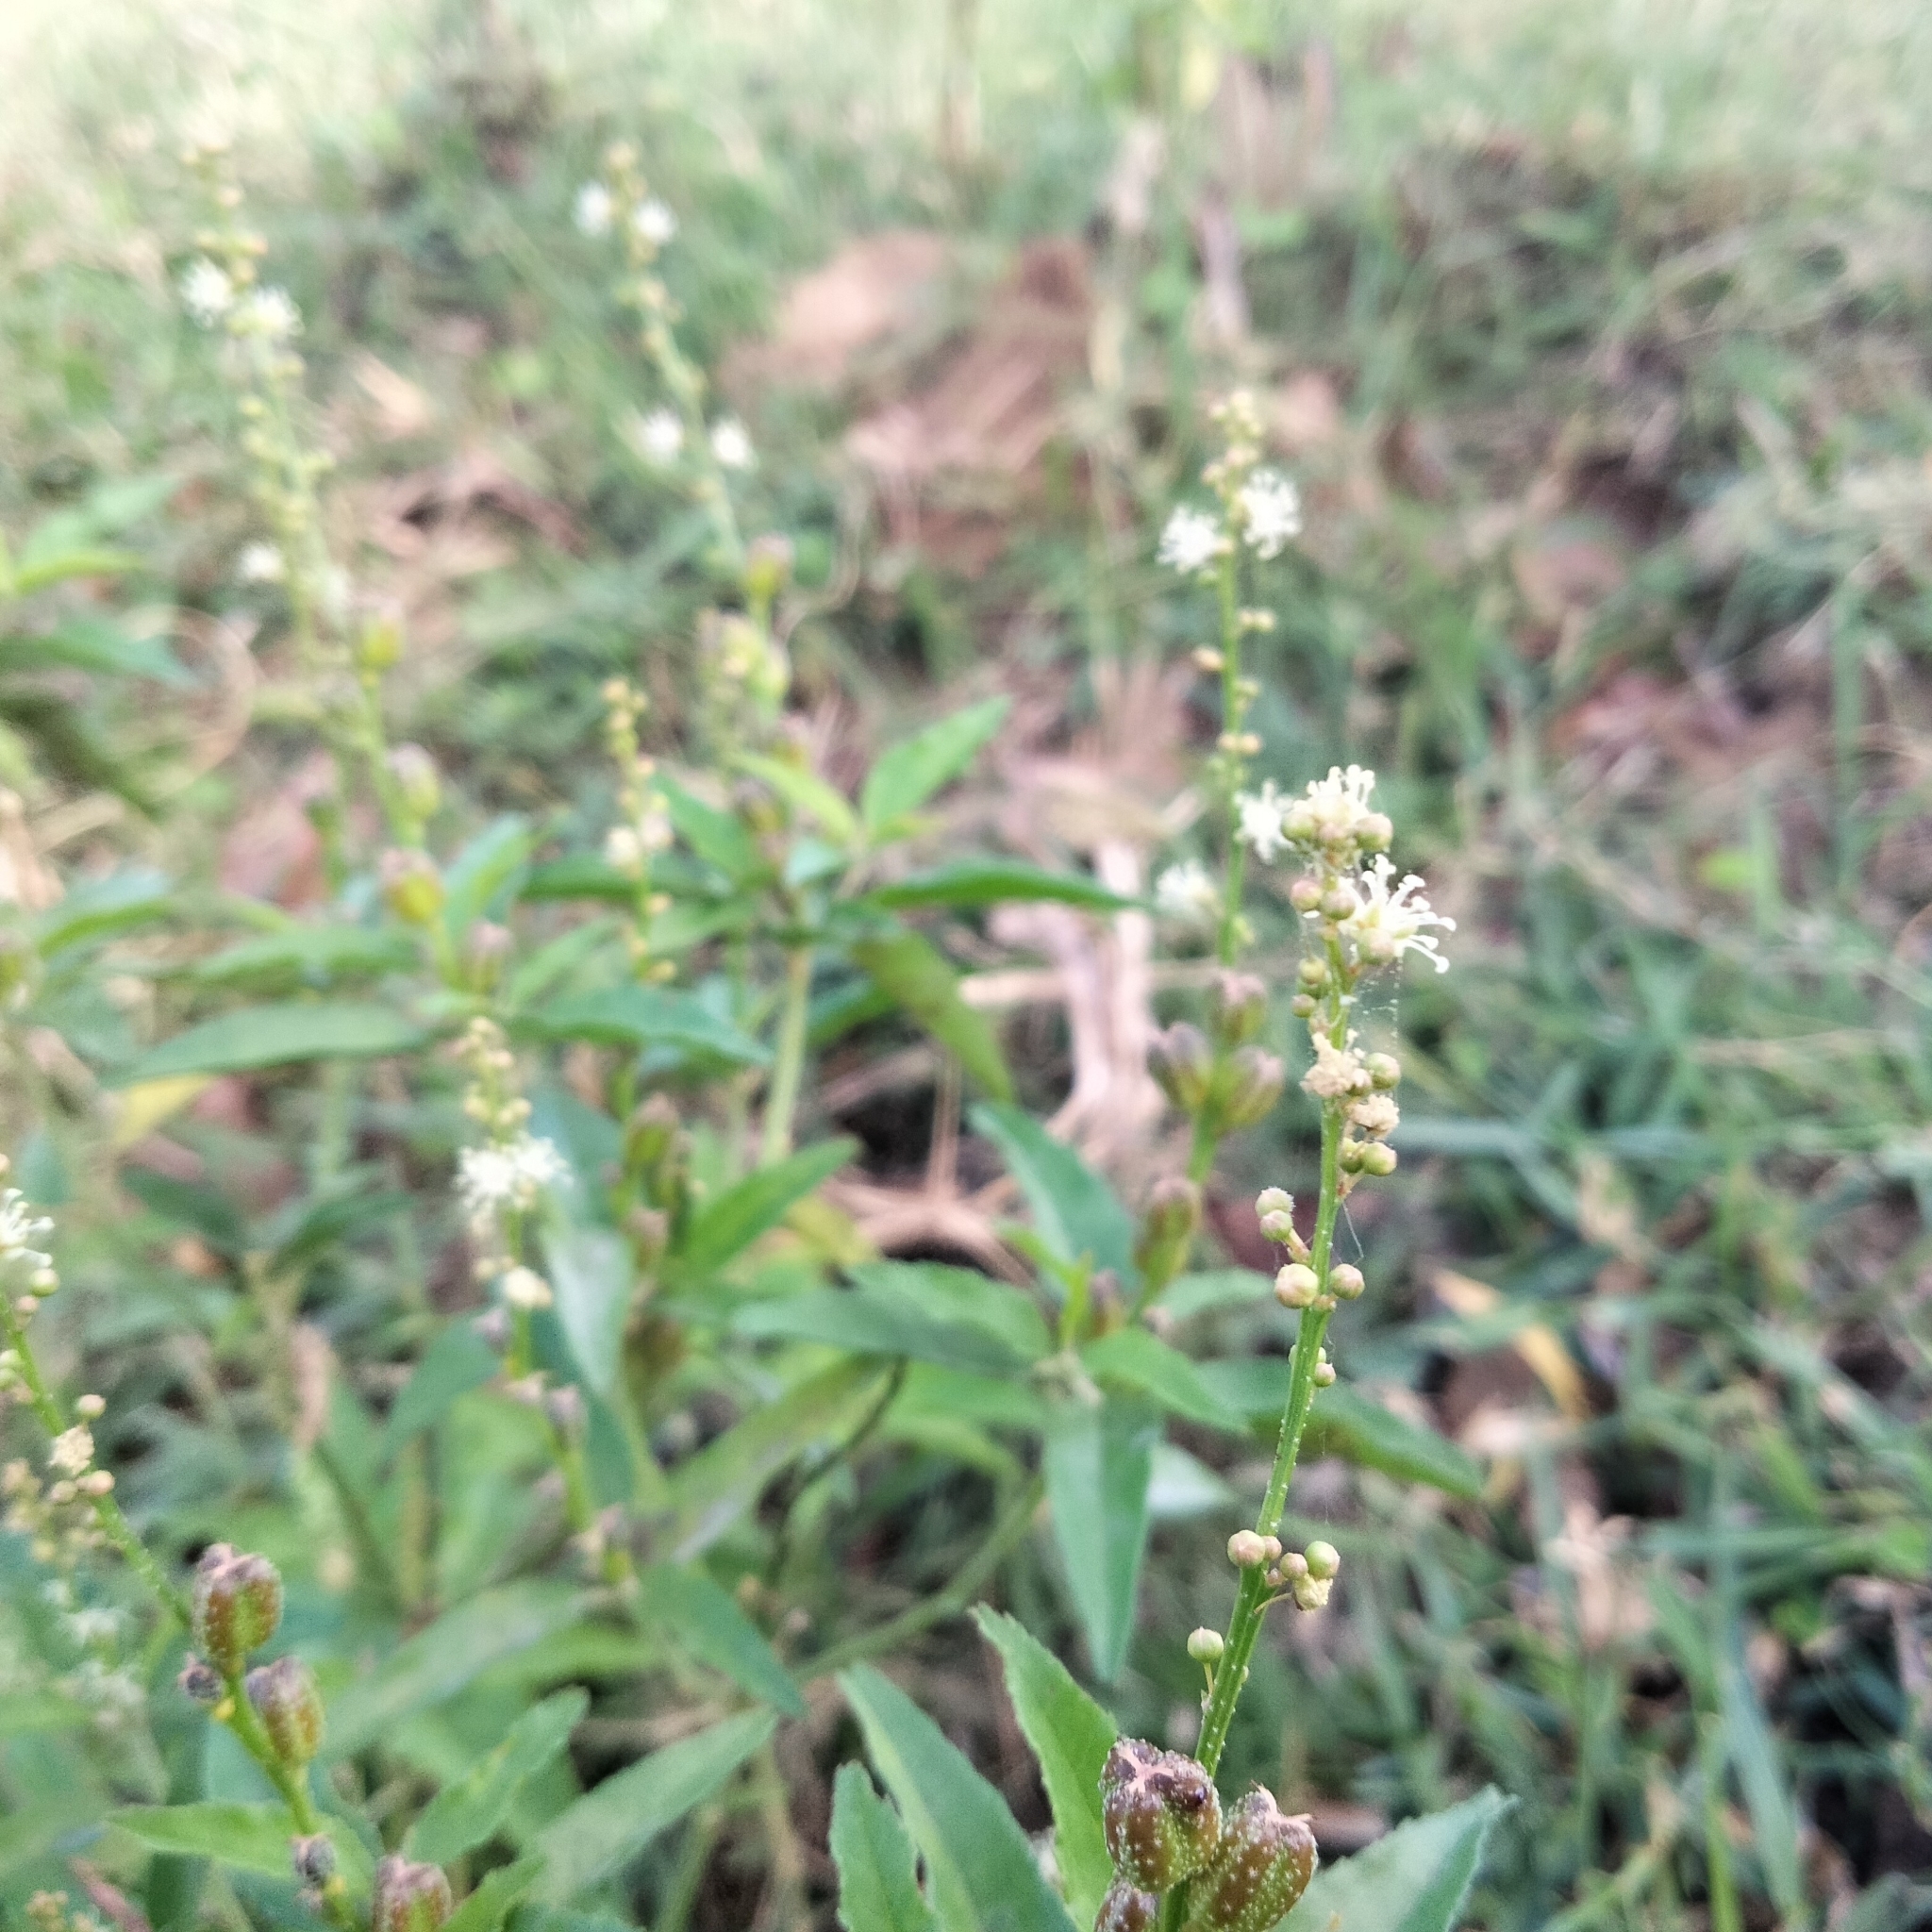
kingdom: Plantae
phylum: Tracheophyta
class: Magnoliopsida
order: Malpighiales
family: Euphorbiaceae
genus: Croton
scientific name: Croton bonplandianus
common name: Bonpland's croton
